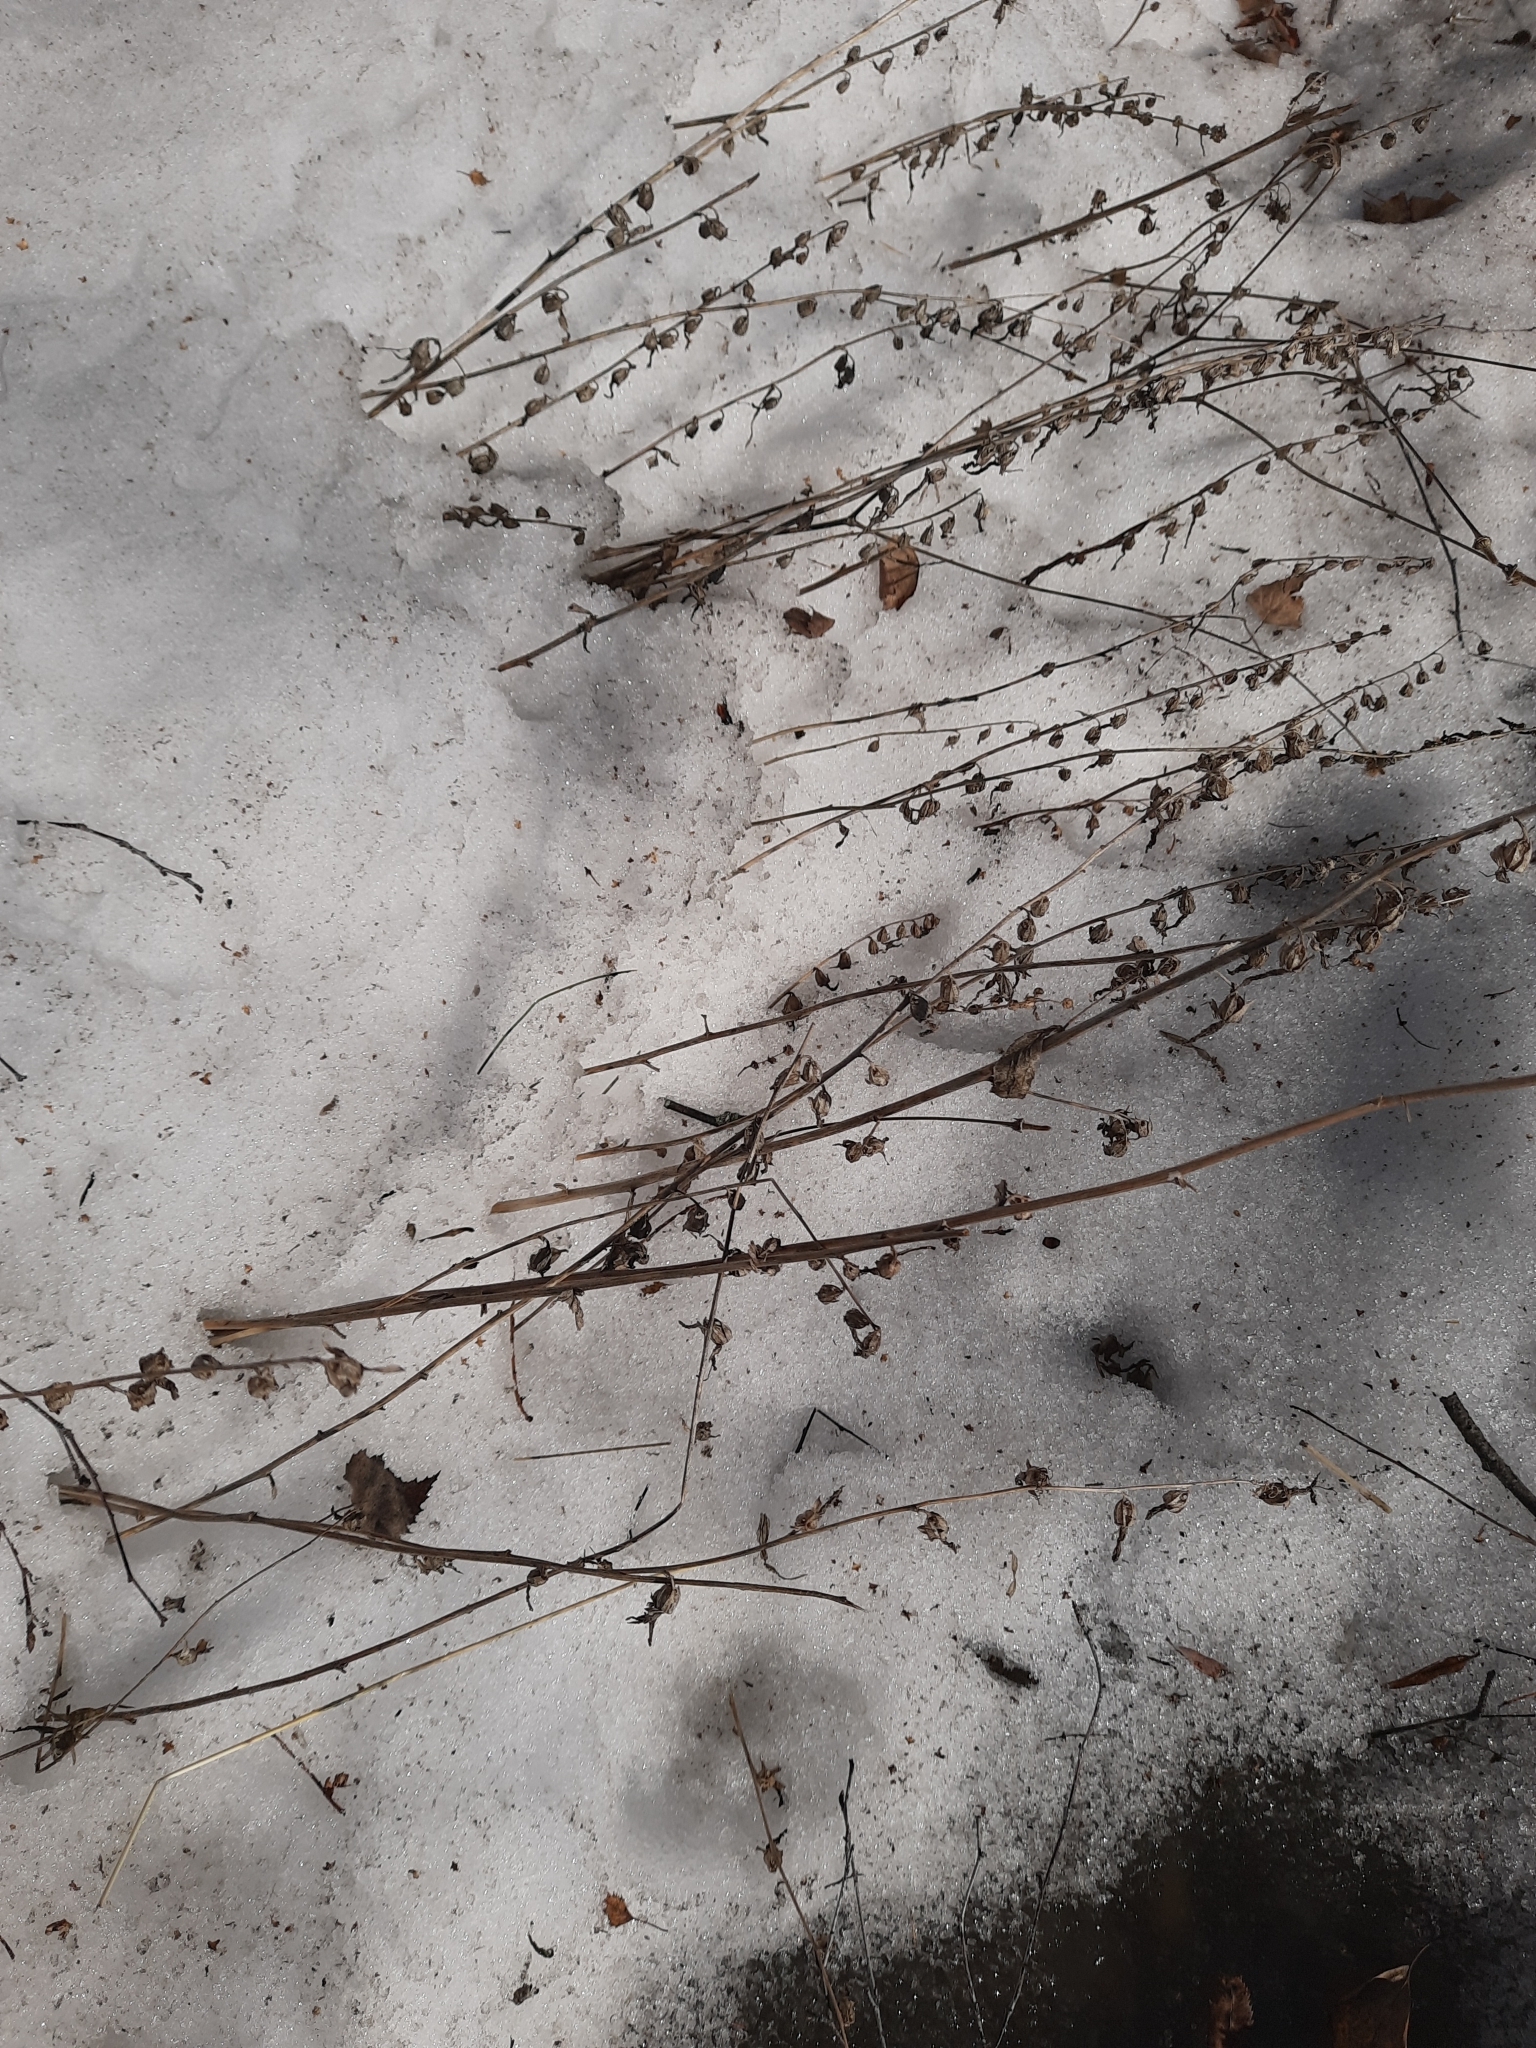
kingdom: Plantae
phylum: Tracheophyta
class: Magnoliopsida
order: Asterales
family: Campanulaceae
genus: Campanula
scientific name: Campanula rapunculoides
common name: Creeping bellflower
